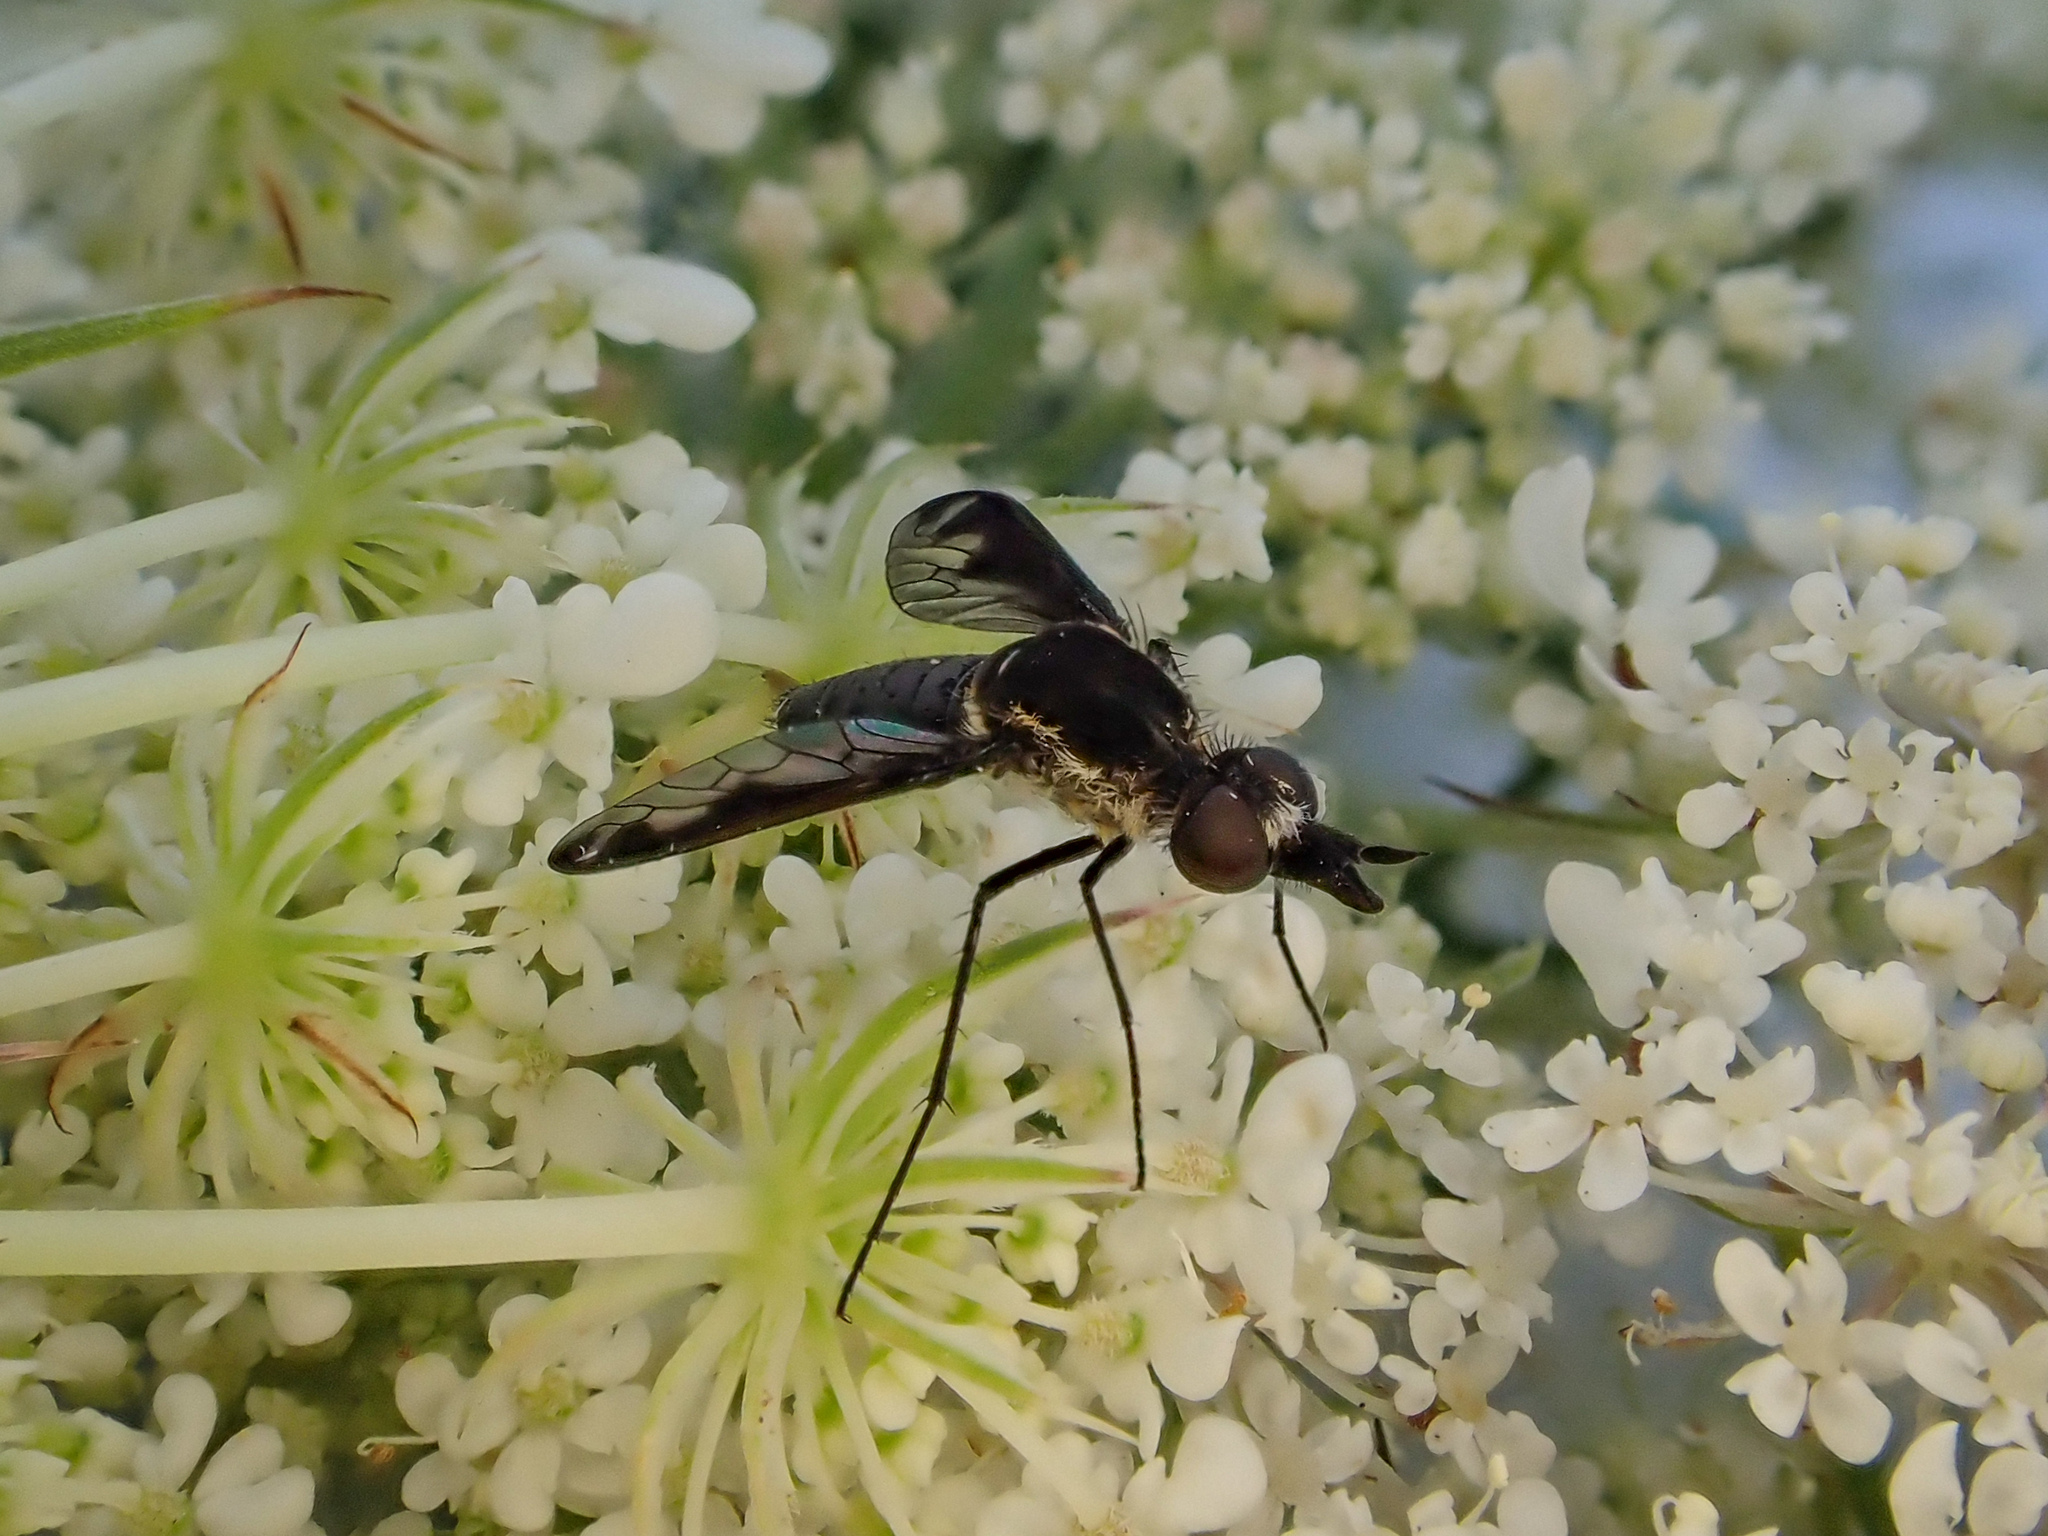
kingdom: Animalia
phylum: Arthropoda
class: Insecta
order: Diptera
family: Bombyliidae
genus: Tillyardomyia
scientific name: Tillyardomyia gracilis
